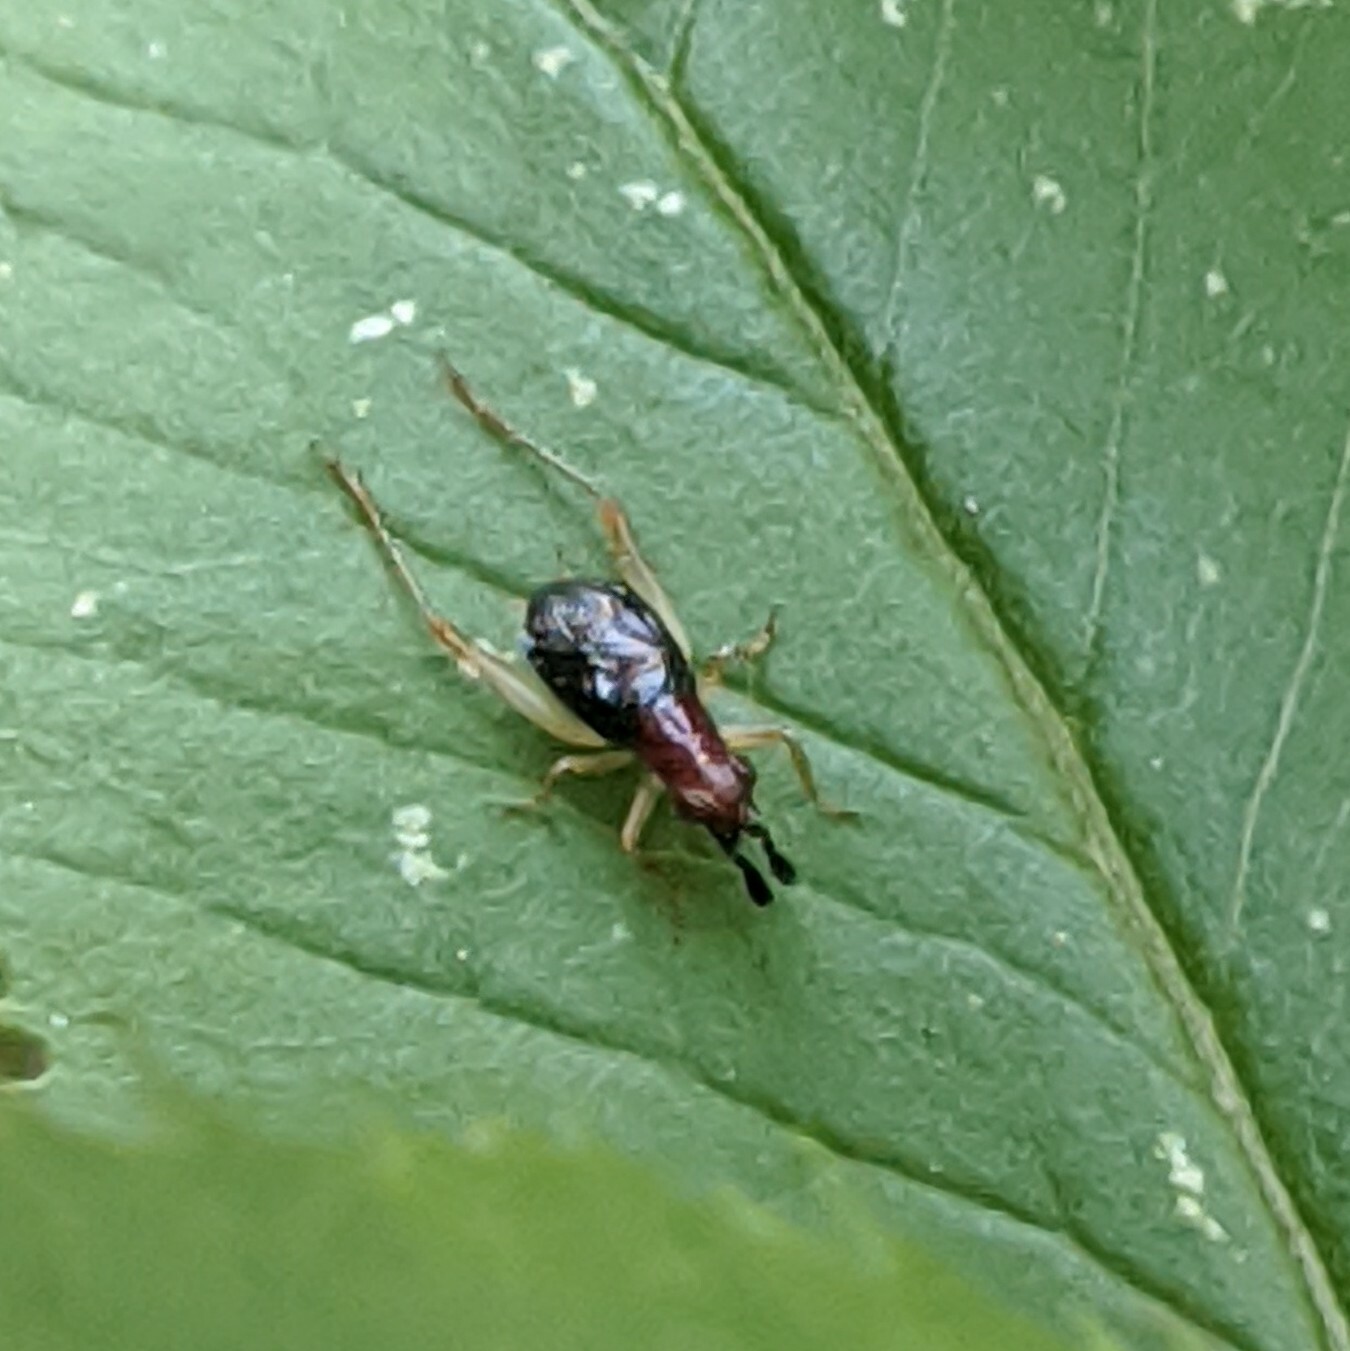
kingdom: Animalia
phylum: Arthropoda
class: Insecta
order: Orthoptera
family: Trigonidiidae
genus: Phyllopalpus
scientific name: Phyllopalpus pulchellus
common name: Handsome trig
